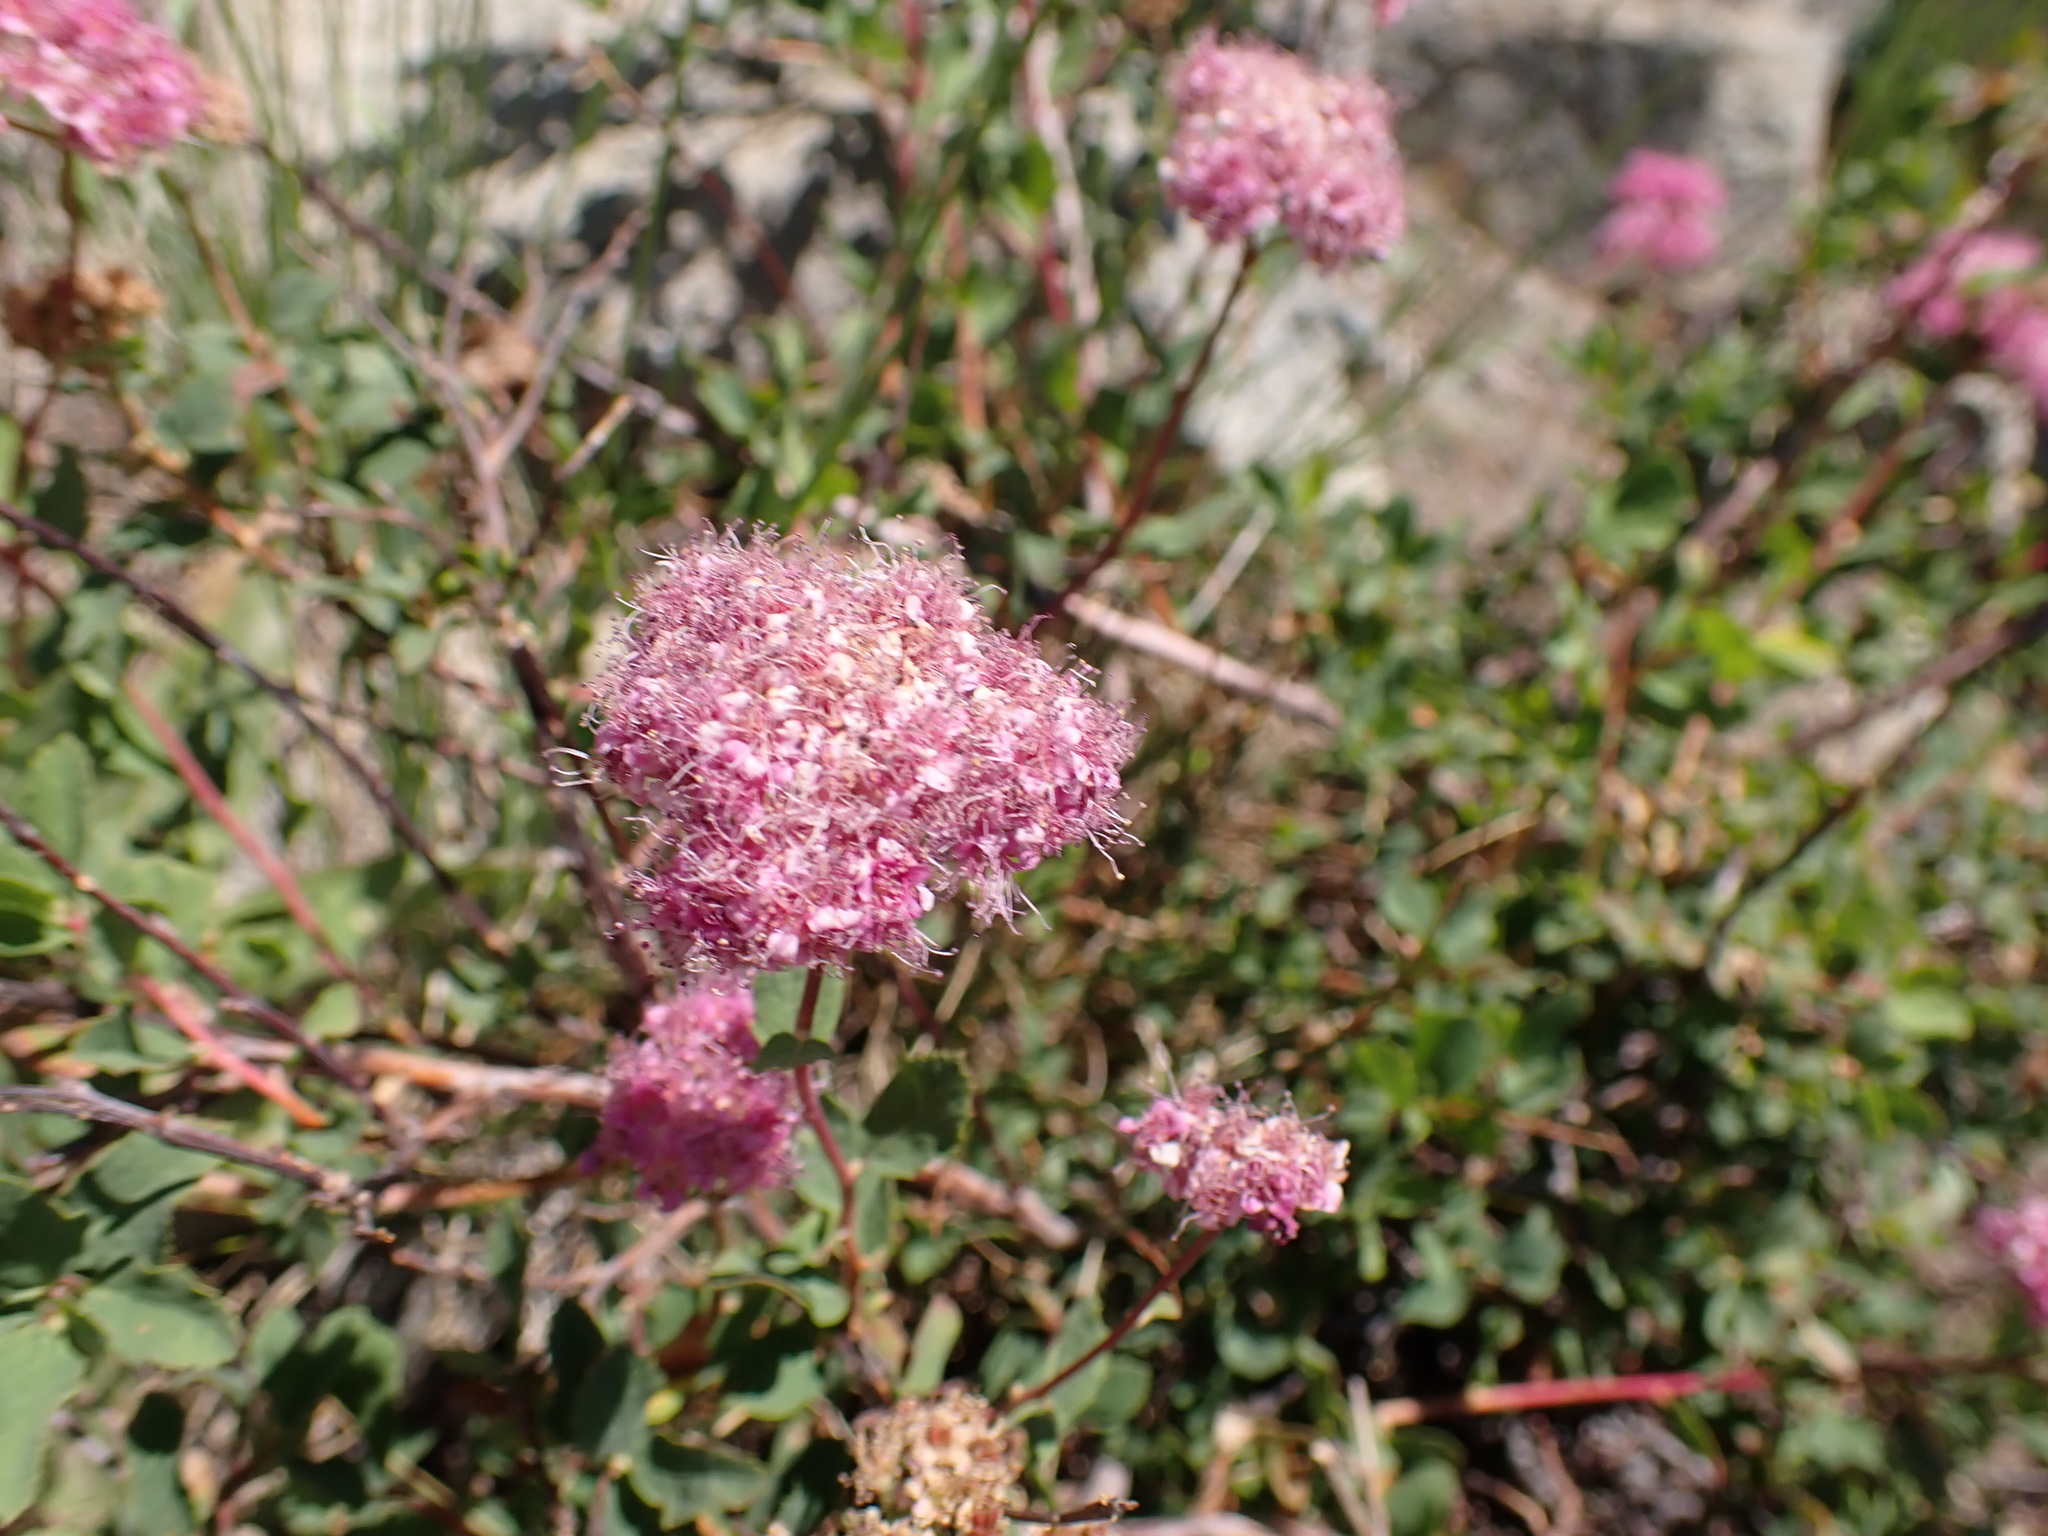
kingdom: Plantae
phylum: Tracheophyta
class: Magnoliopsida
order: Rosales
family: Rosaceae
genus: Spiraea
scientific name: Spiraea splendens
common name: Subalpine meadowsweet
